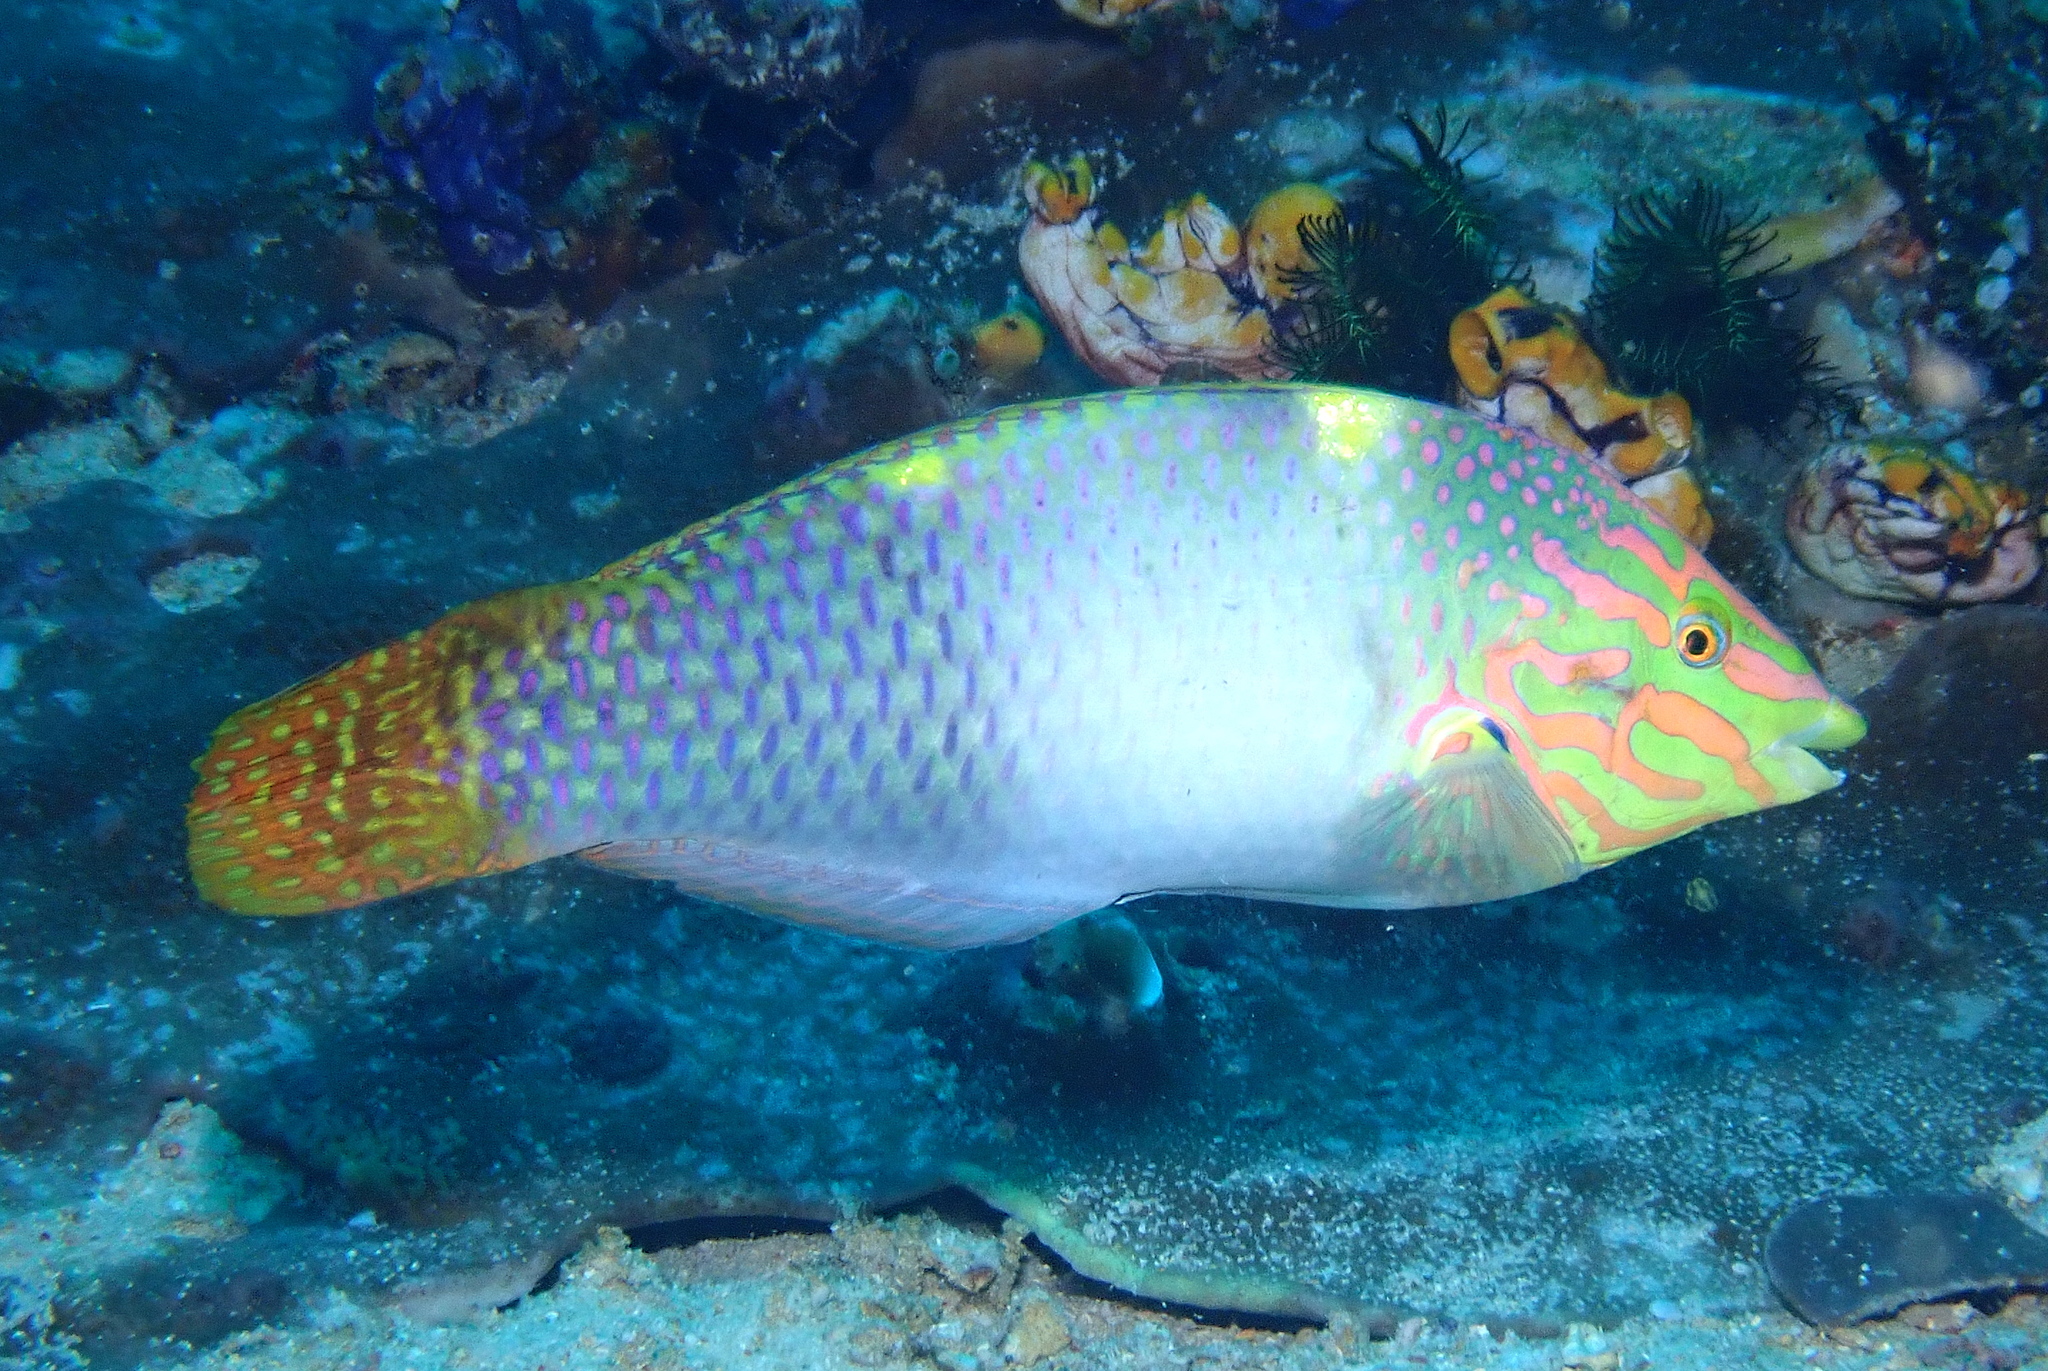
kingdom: Animalia
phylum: Chordata
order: Perciformes
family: Labridae
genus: Halichoeres
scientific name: Halichoeres hortulanus
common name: Checkerboard wrasse
